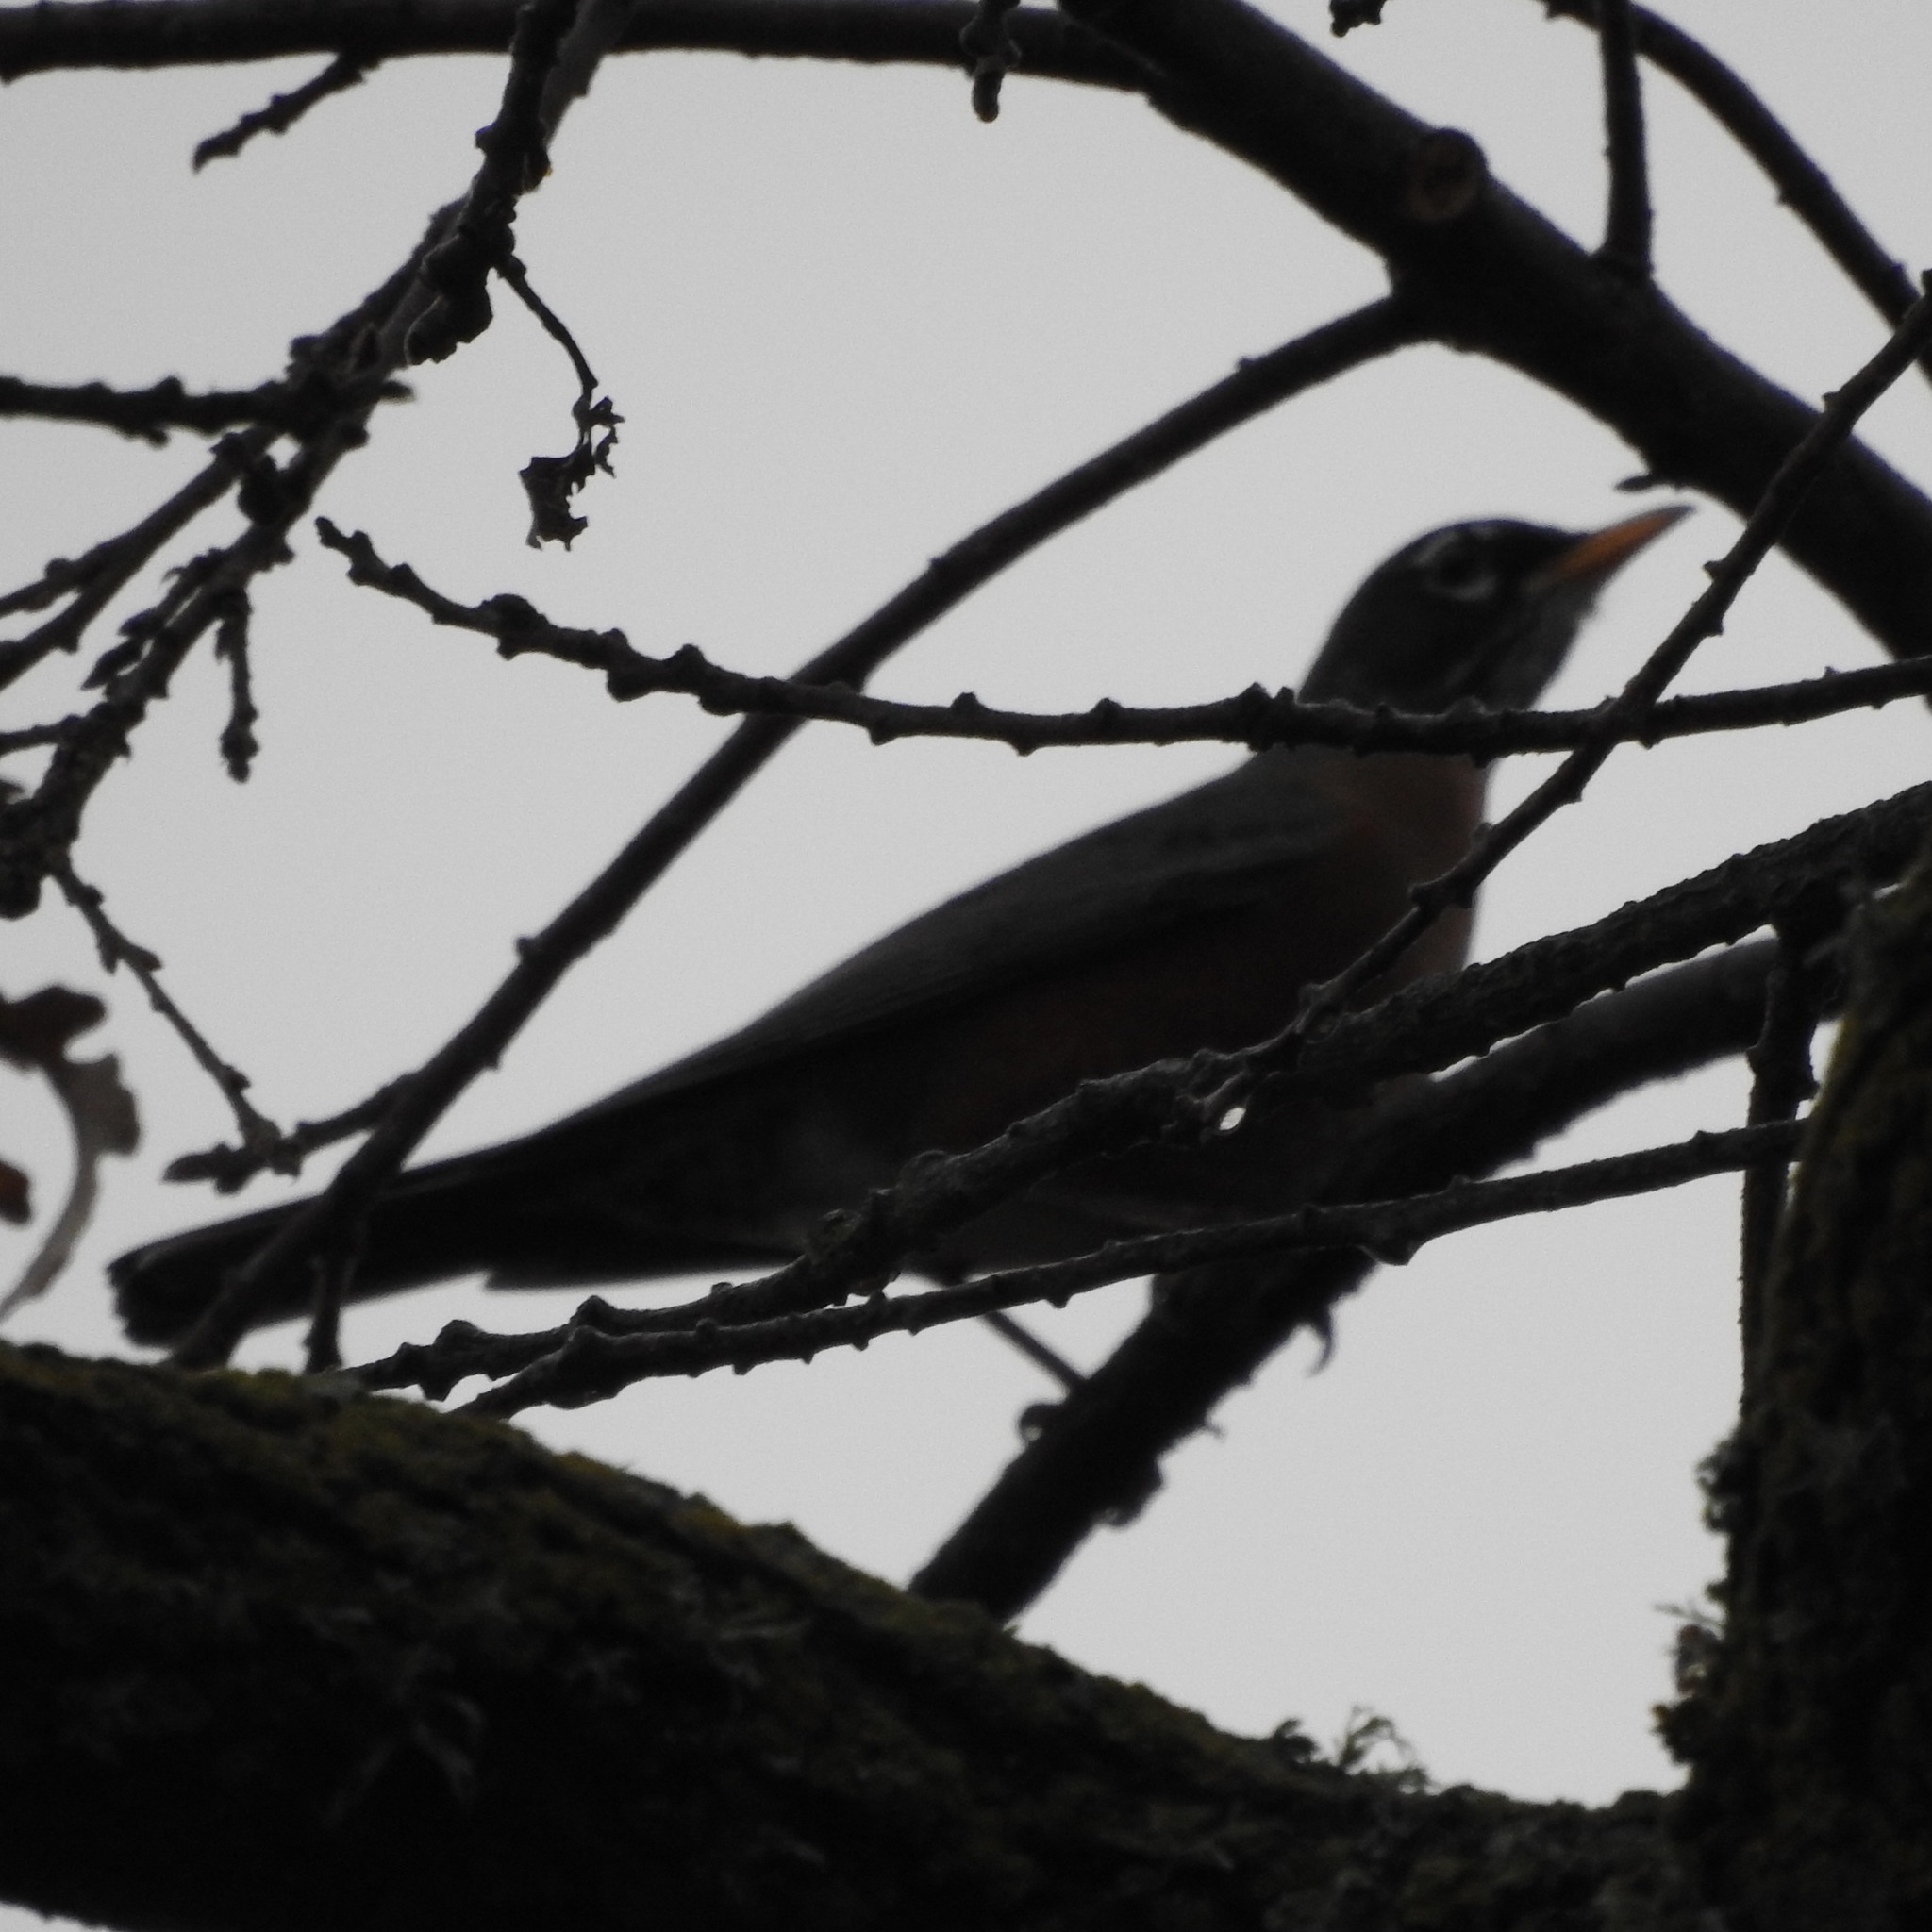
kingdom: Animalia
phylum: Chordata
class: Aves
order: Passeriformes
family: Turdidae
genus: Turdus
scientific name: Turdus migratorius
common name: American robin
